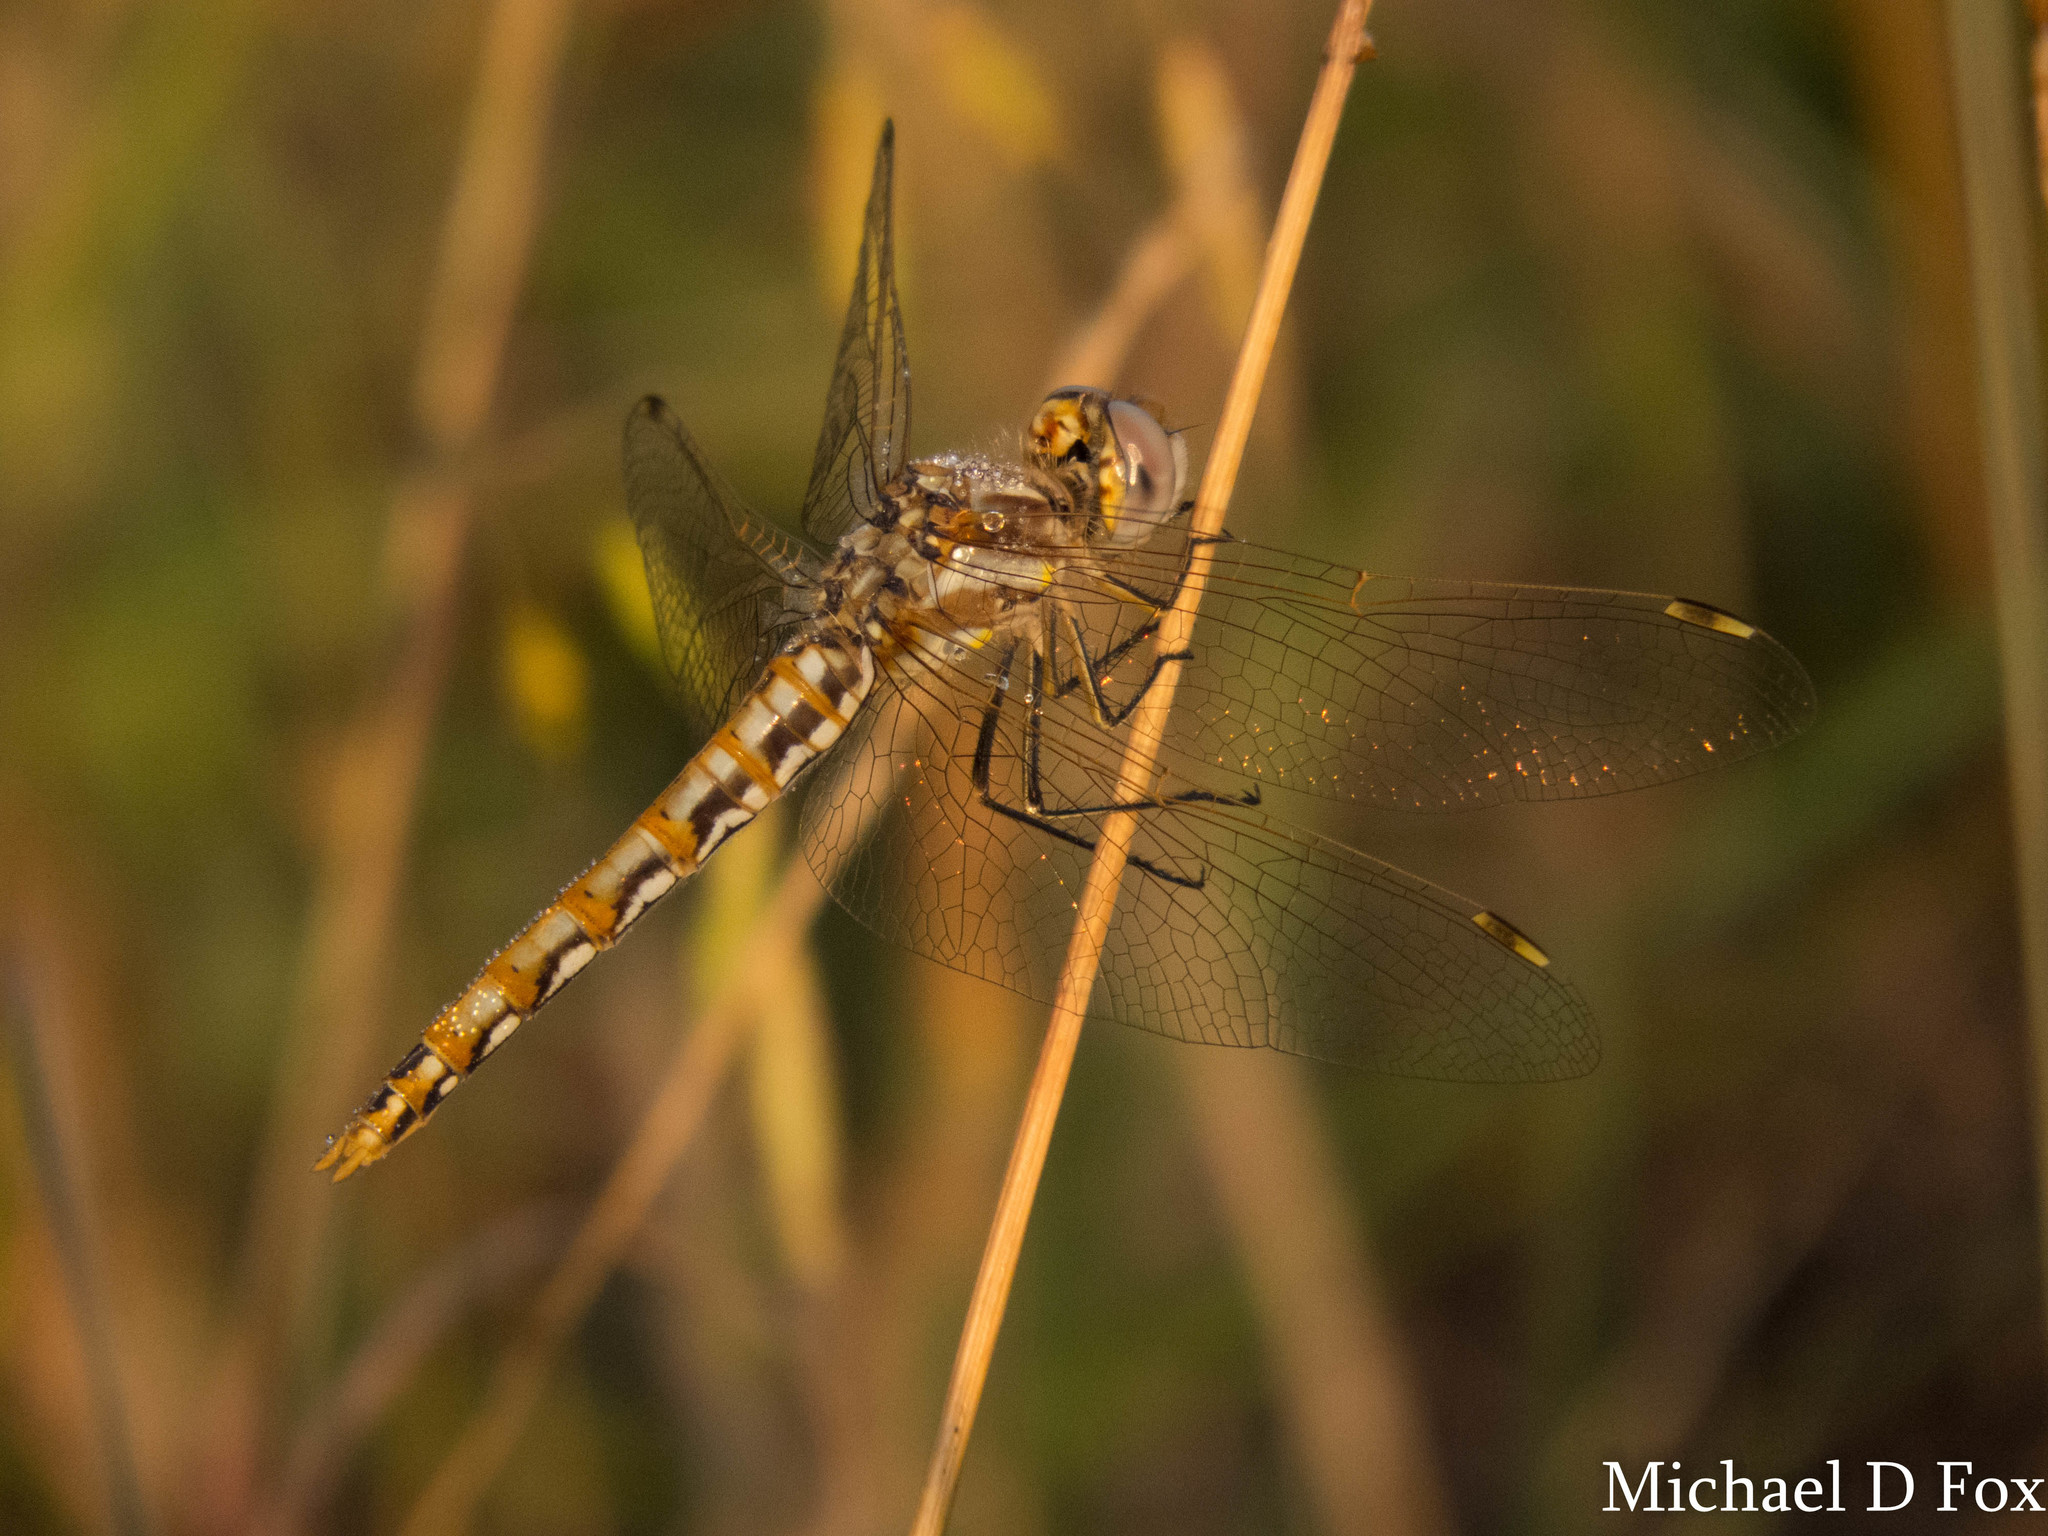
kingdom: Animalia
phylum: Arthropoda
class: Insecta
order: Odonata
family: Libellulidae
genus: Sympetrum
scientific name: Sympetrum corruptum
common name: Variegated meadowhawk
